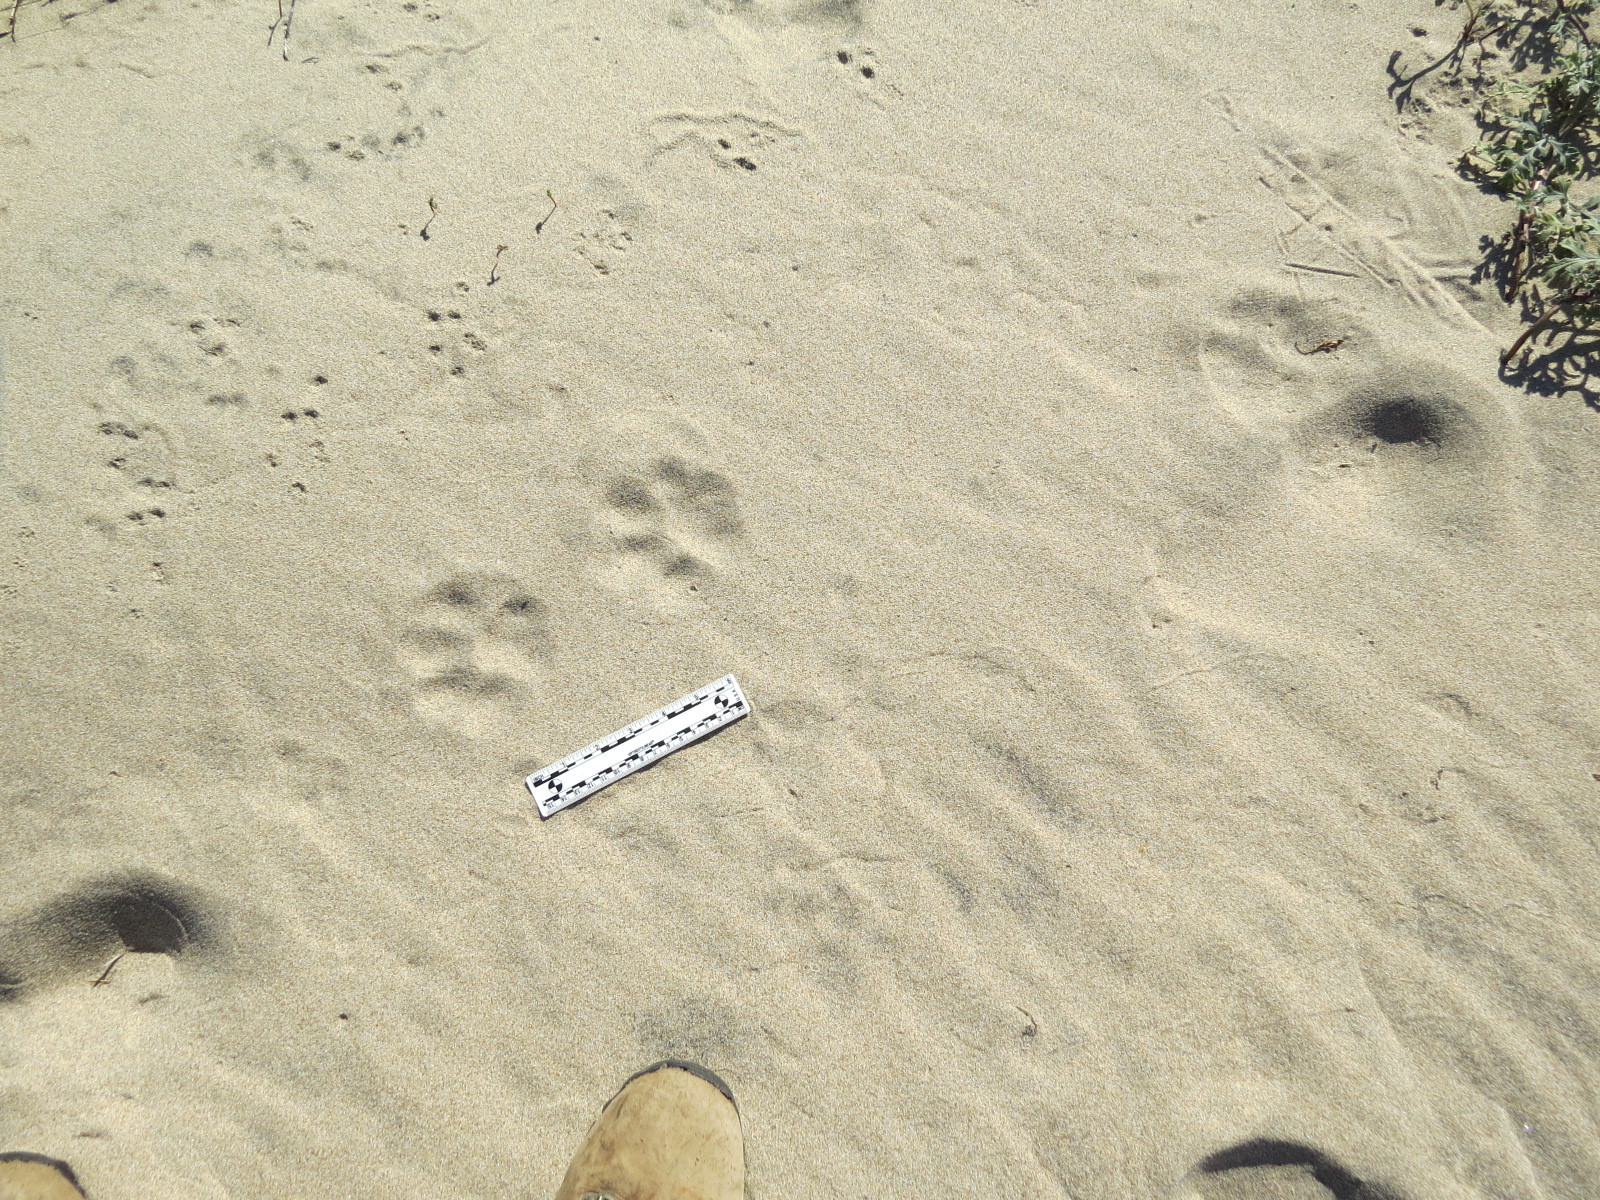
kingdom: Animalia
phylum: Chordata
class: Mammalia
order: Carnivora
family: Felidae
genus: Puma
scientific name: Puma concolor
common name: Puma
